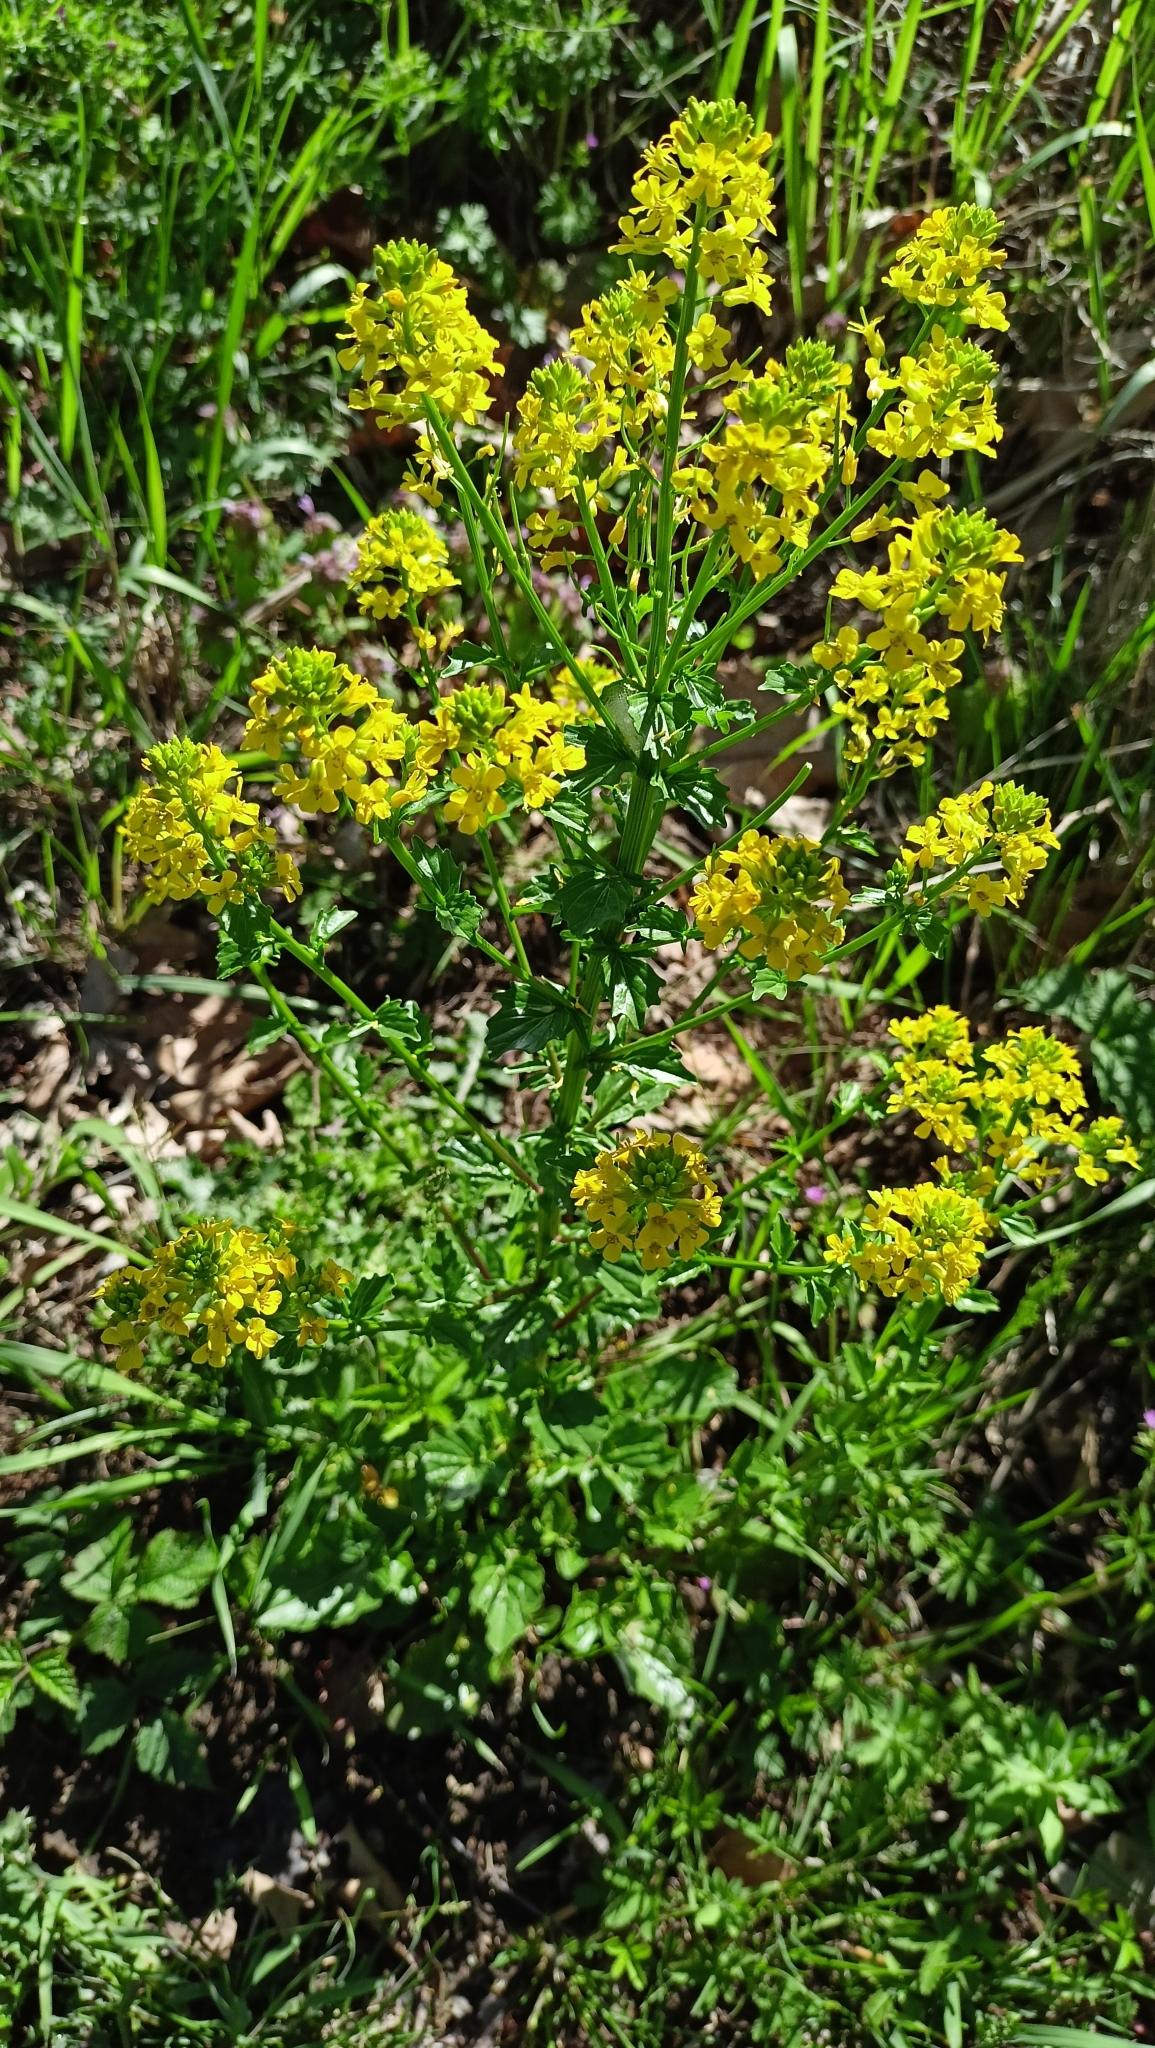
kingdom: Plantae
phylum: Tracheophyta
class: Magnoliopsida
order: Brassicales
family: Brassicaceae
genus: Barbarea
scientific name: Barbarea vulgaris
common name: Cressy-greens
